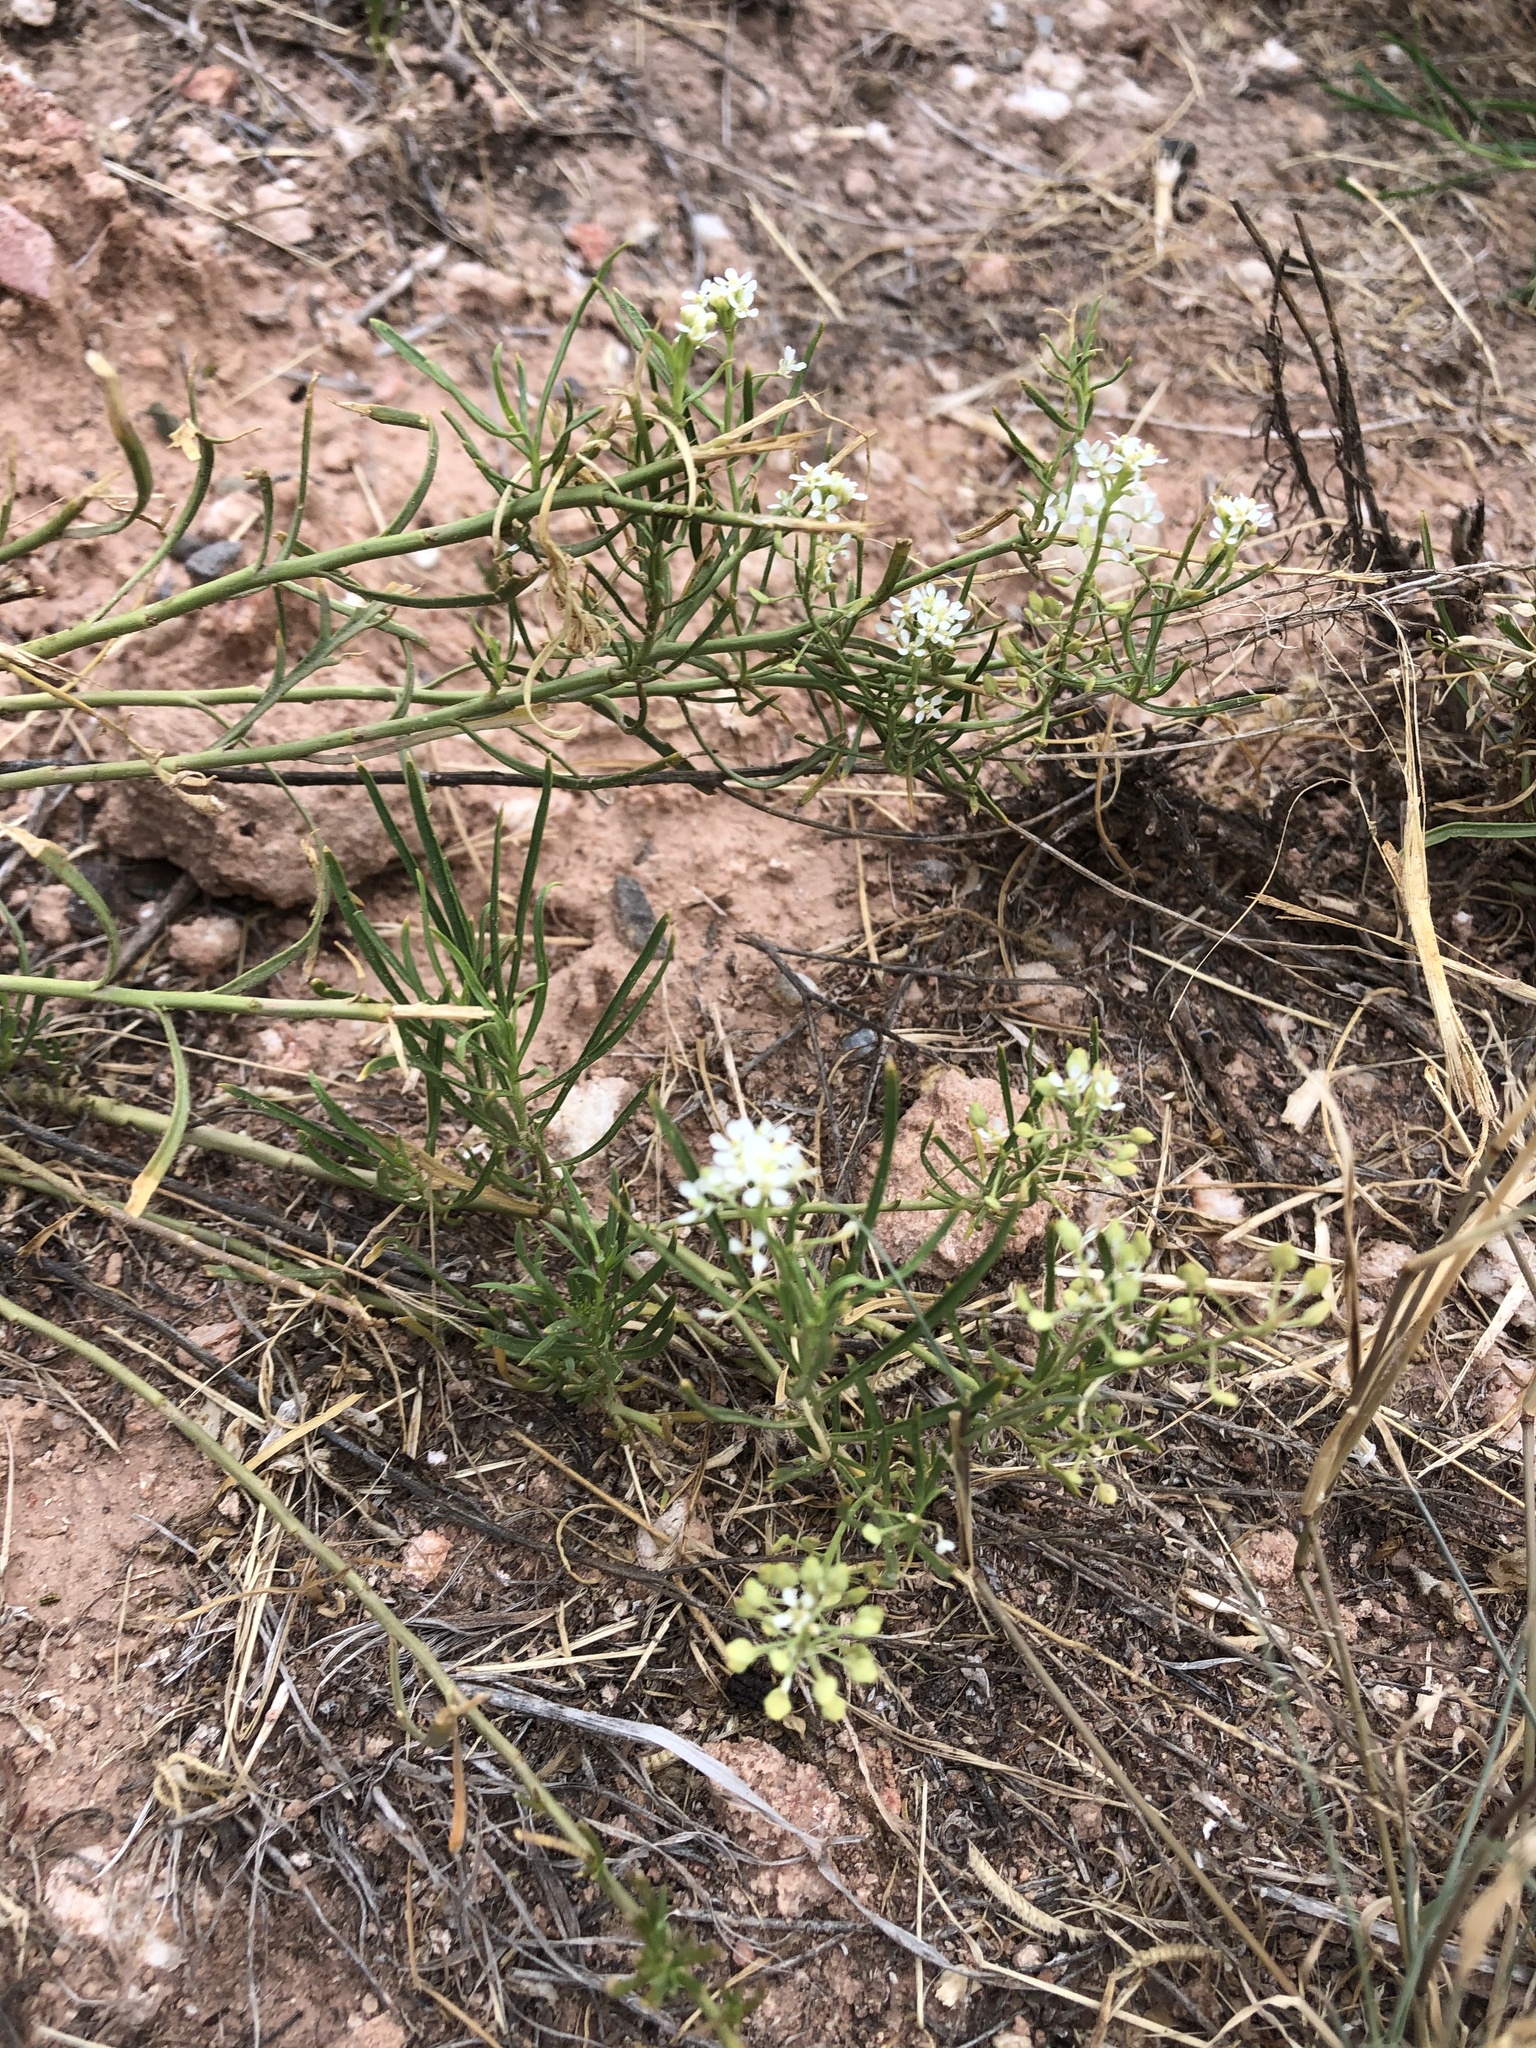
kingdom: Plantae
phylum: Tracheophyta
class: Magnoliopsida
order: Brassicales
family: Brassicaceae
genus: Lepidium
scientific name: Lepidium fremontii
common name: Fremont's pepperwort
